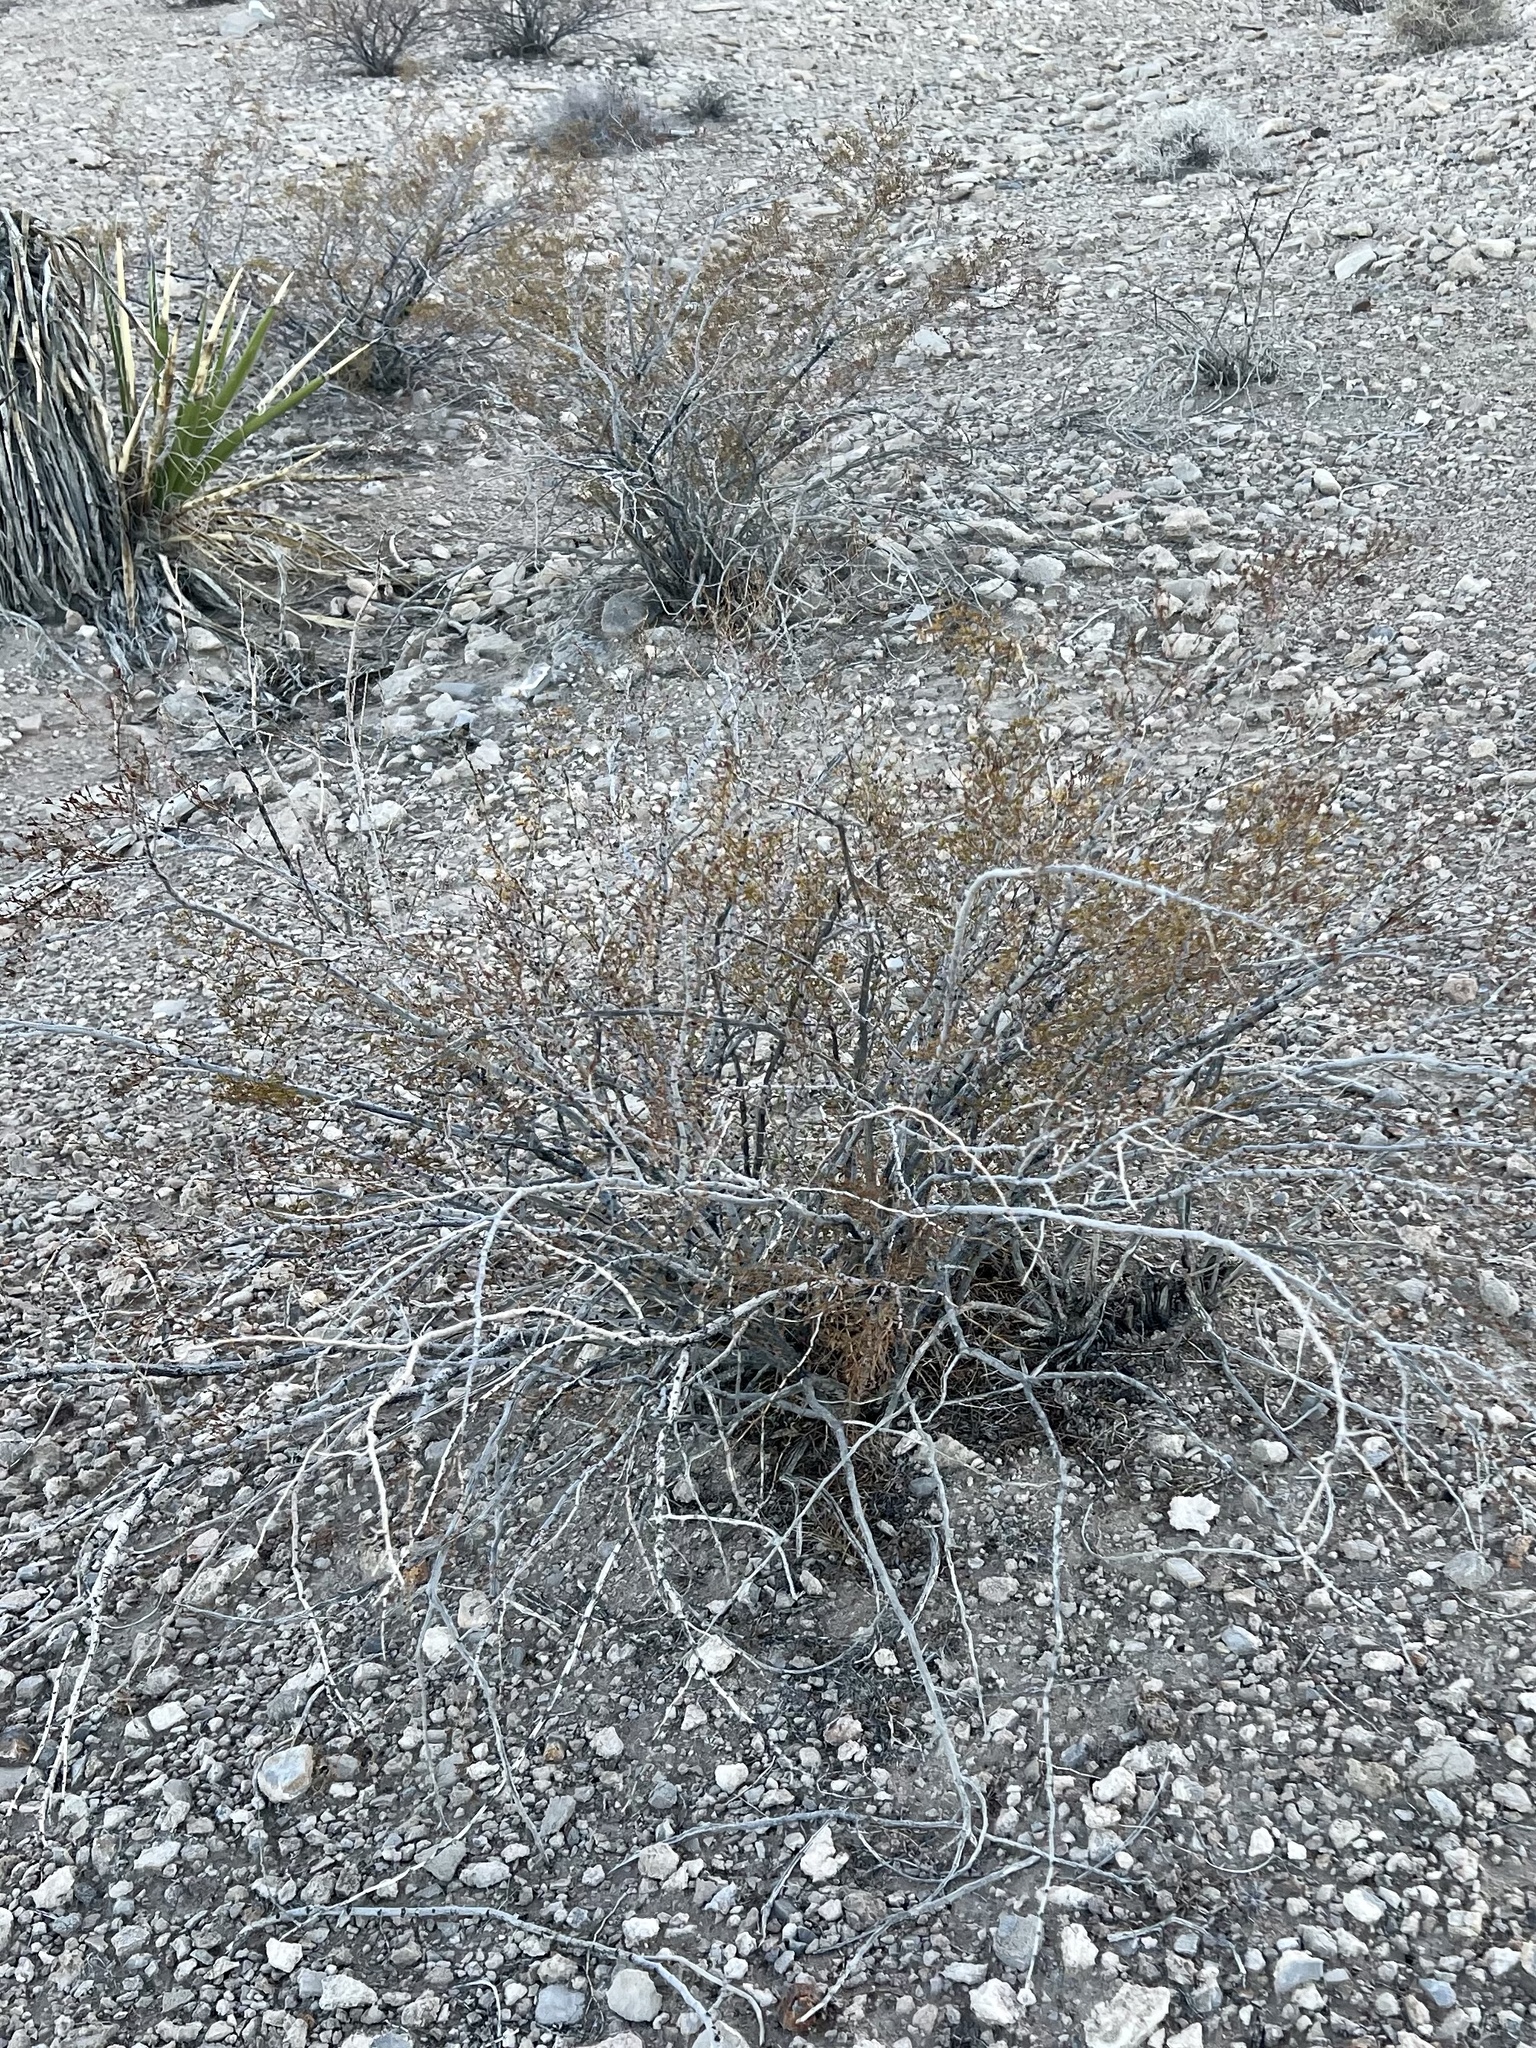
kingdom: Plantae
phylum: Tracheophyta
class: Magnoliopsida
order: Zygophyllales
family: Zygophyllaceae
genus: Larrea
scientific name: Larrea tridentata
